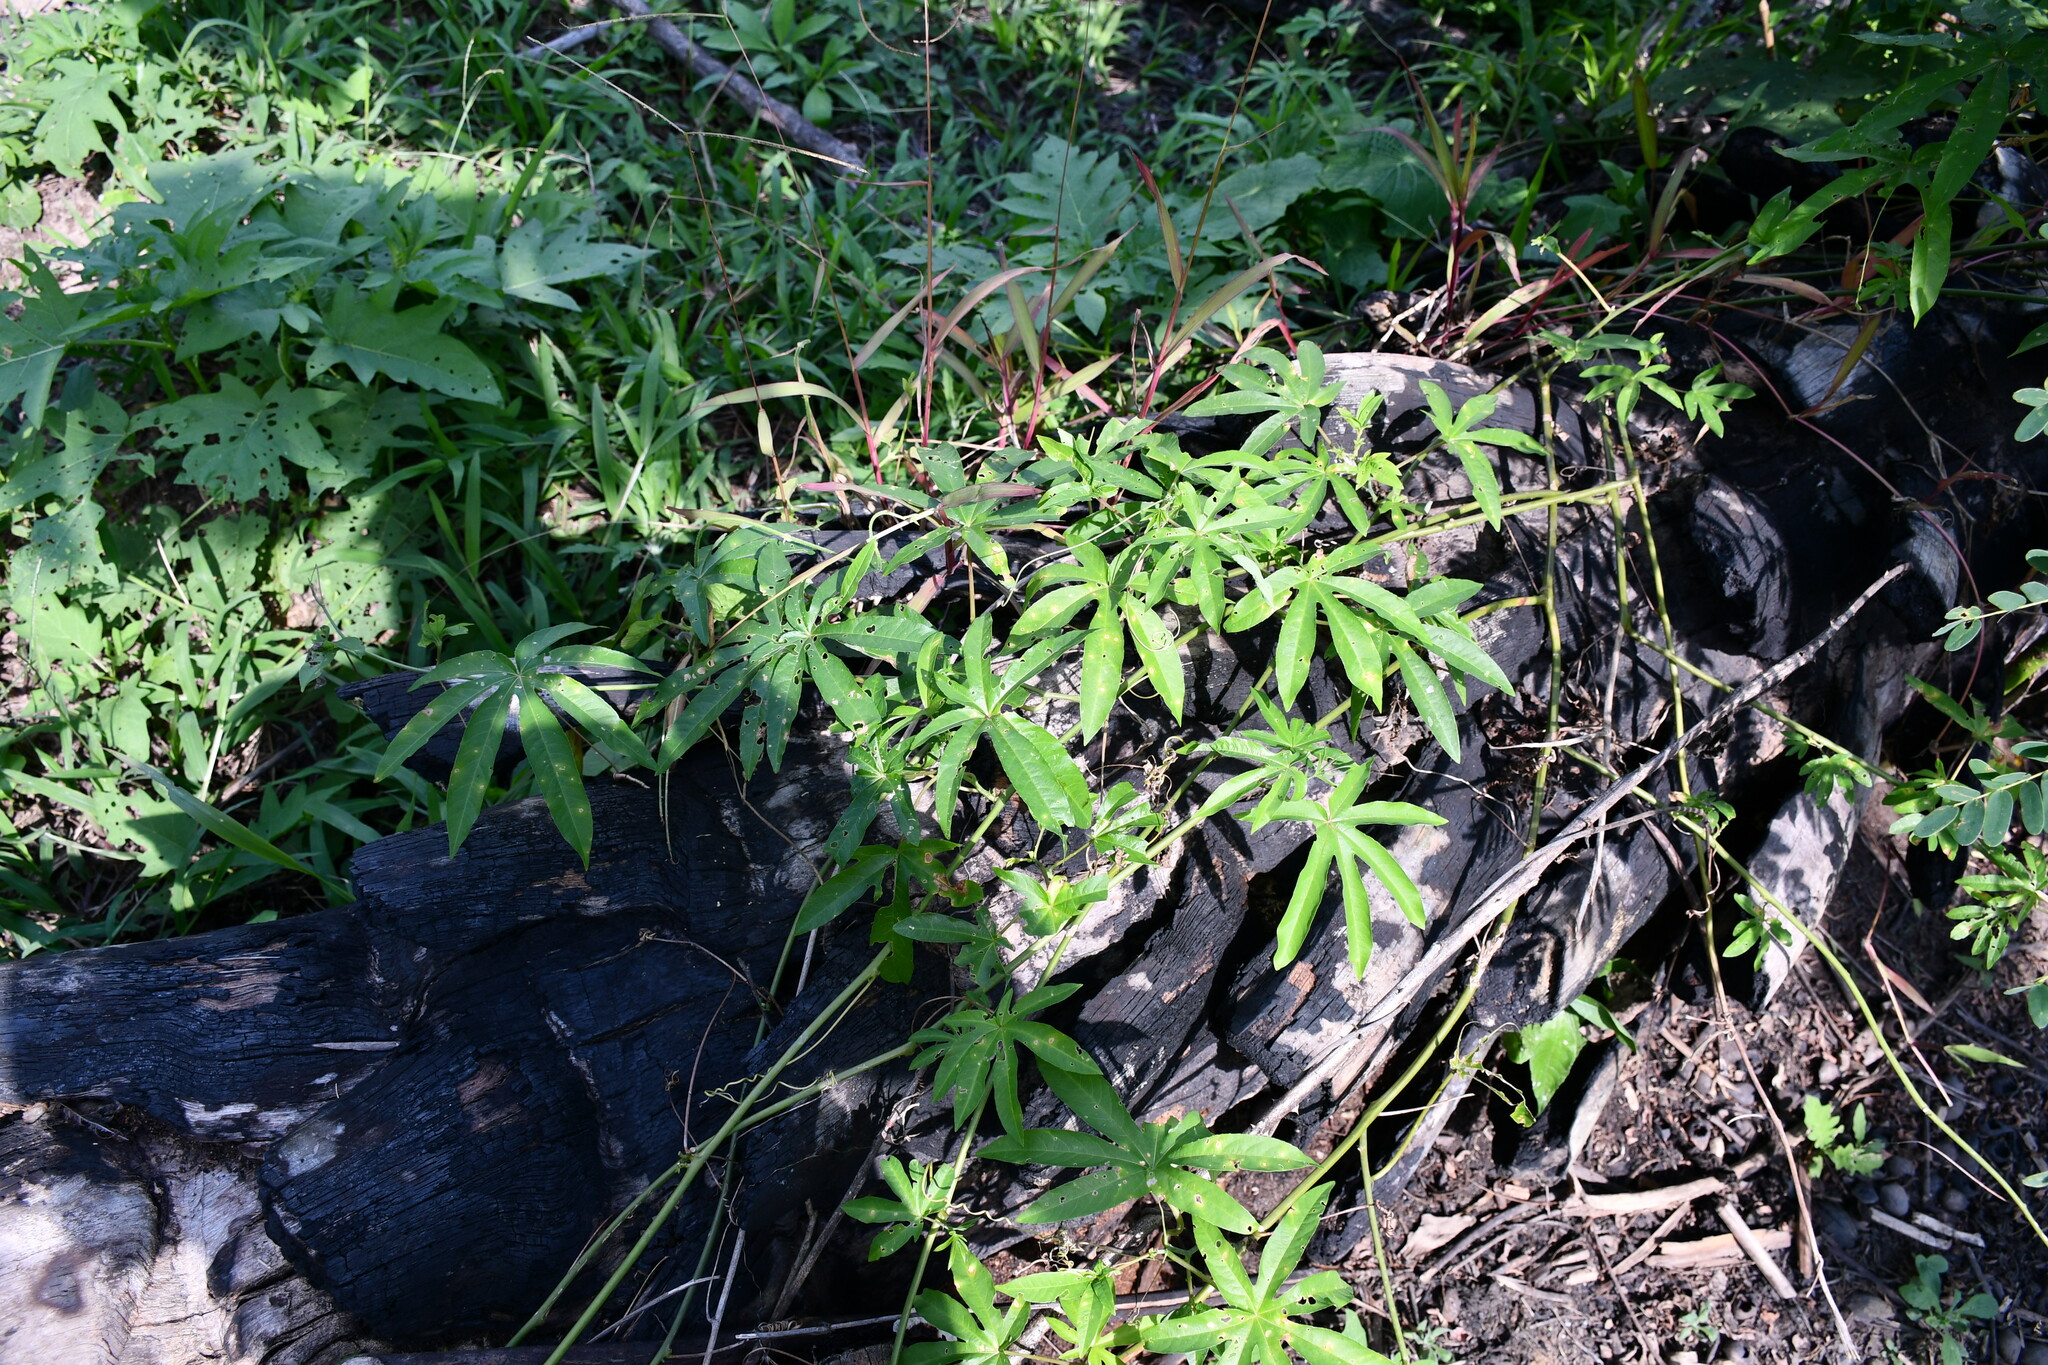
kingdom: Plantae
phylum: Tracheophyta
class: Magnoliopsida
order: Malpighiales
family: Passifloraceae
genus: Passiflora
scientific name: Passiflora serratodigitata
